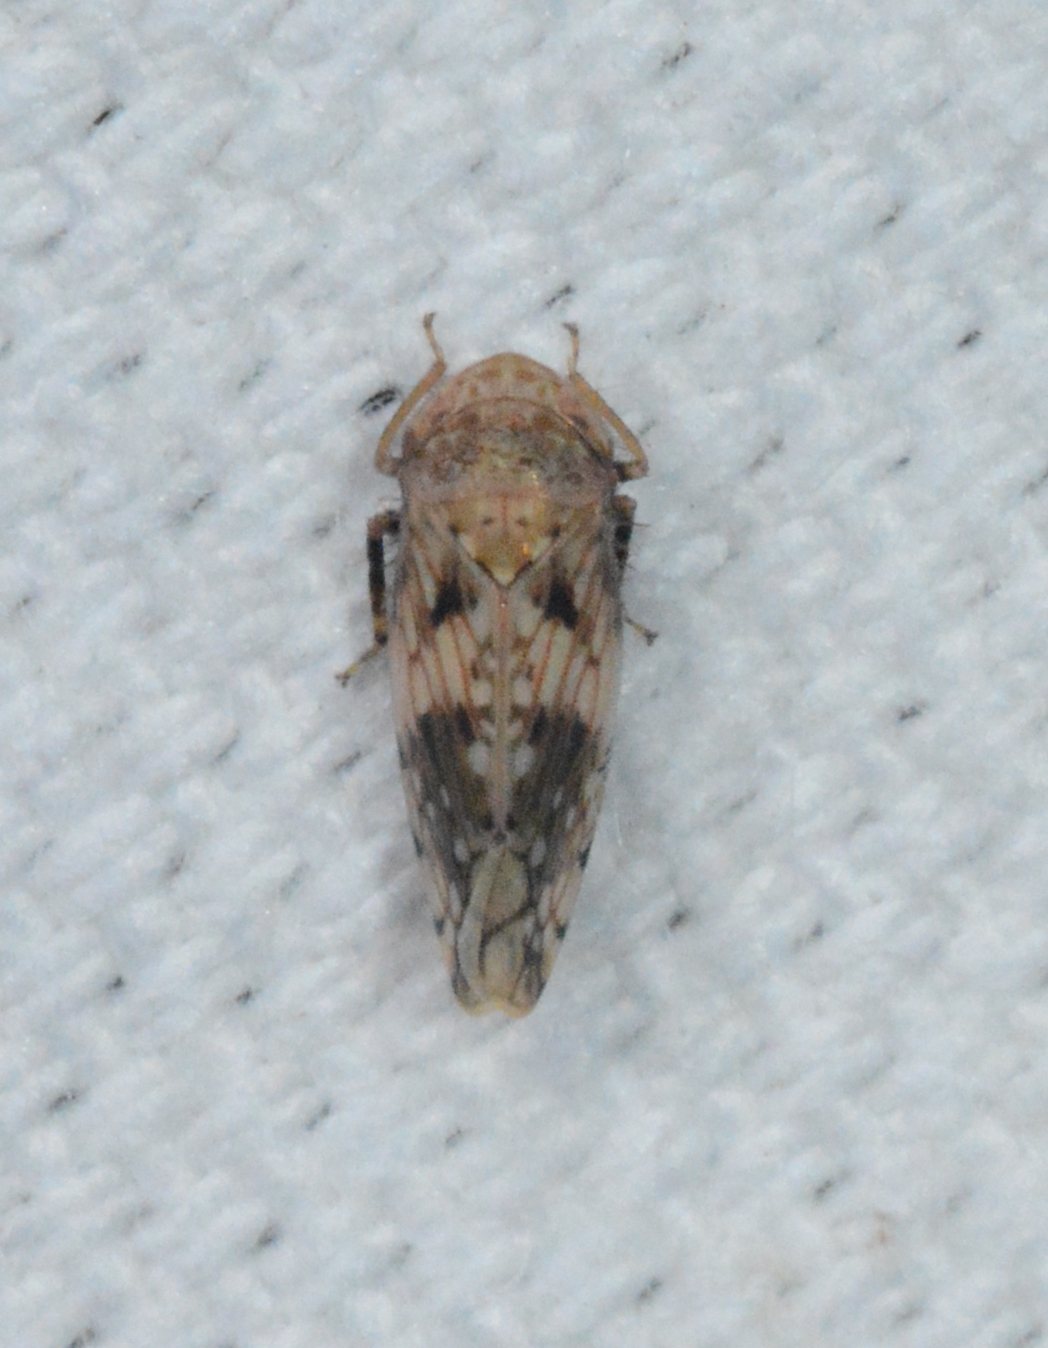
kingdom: Animalia
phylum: Arthropoda
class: Insecta
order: Hemiptera
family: Cicadellidae
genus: Menosoma
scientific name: Menosoma cinctum
